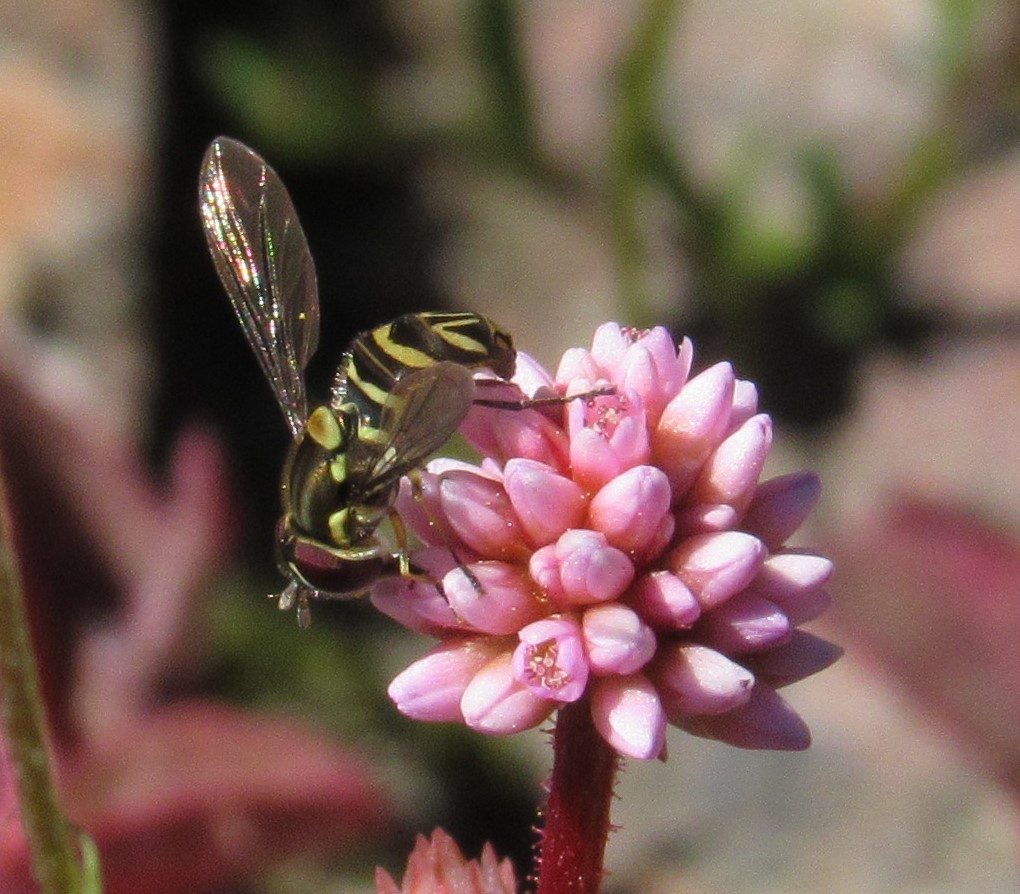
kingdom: Plantae
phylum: Tracheophyta
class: Magnoliopsida
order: Caryophyllales
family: Polygonaceae
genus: Persicaria
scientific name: Persicaria capitata
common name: Pinkhead smartweed
